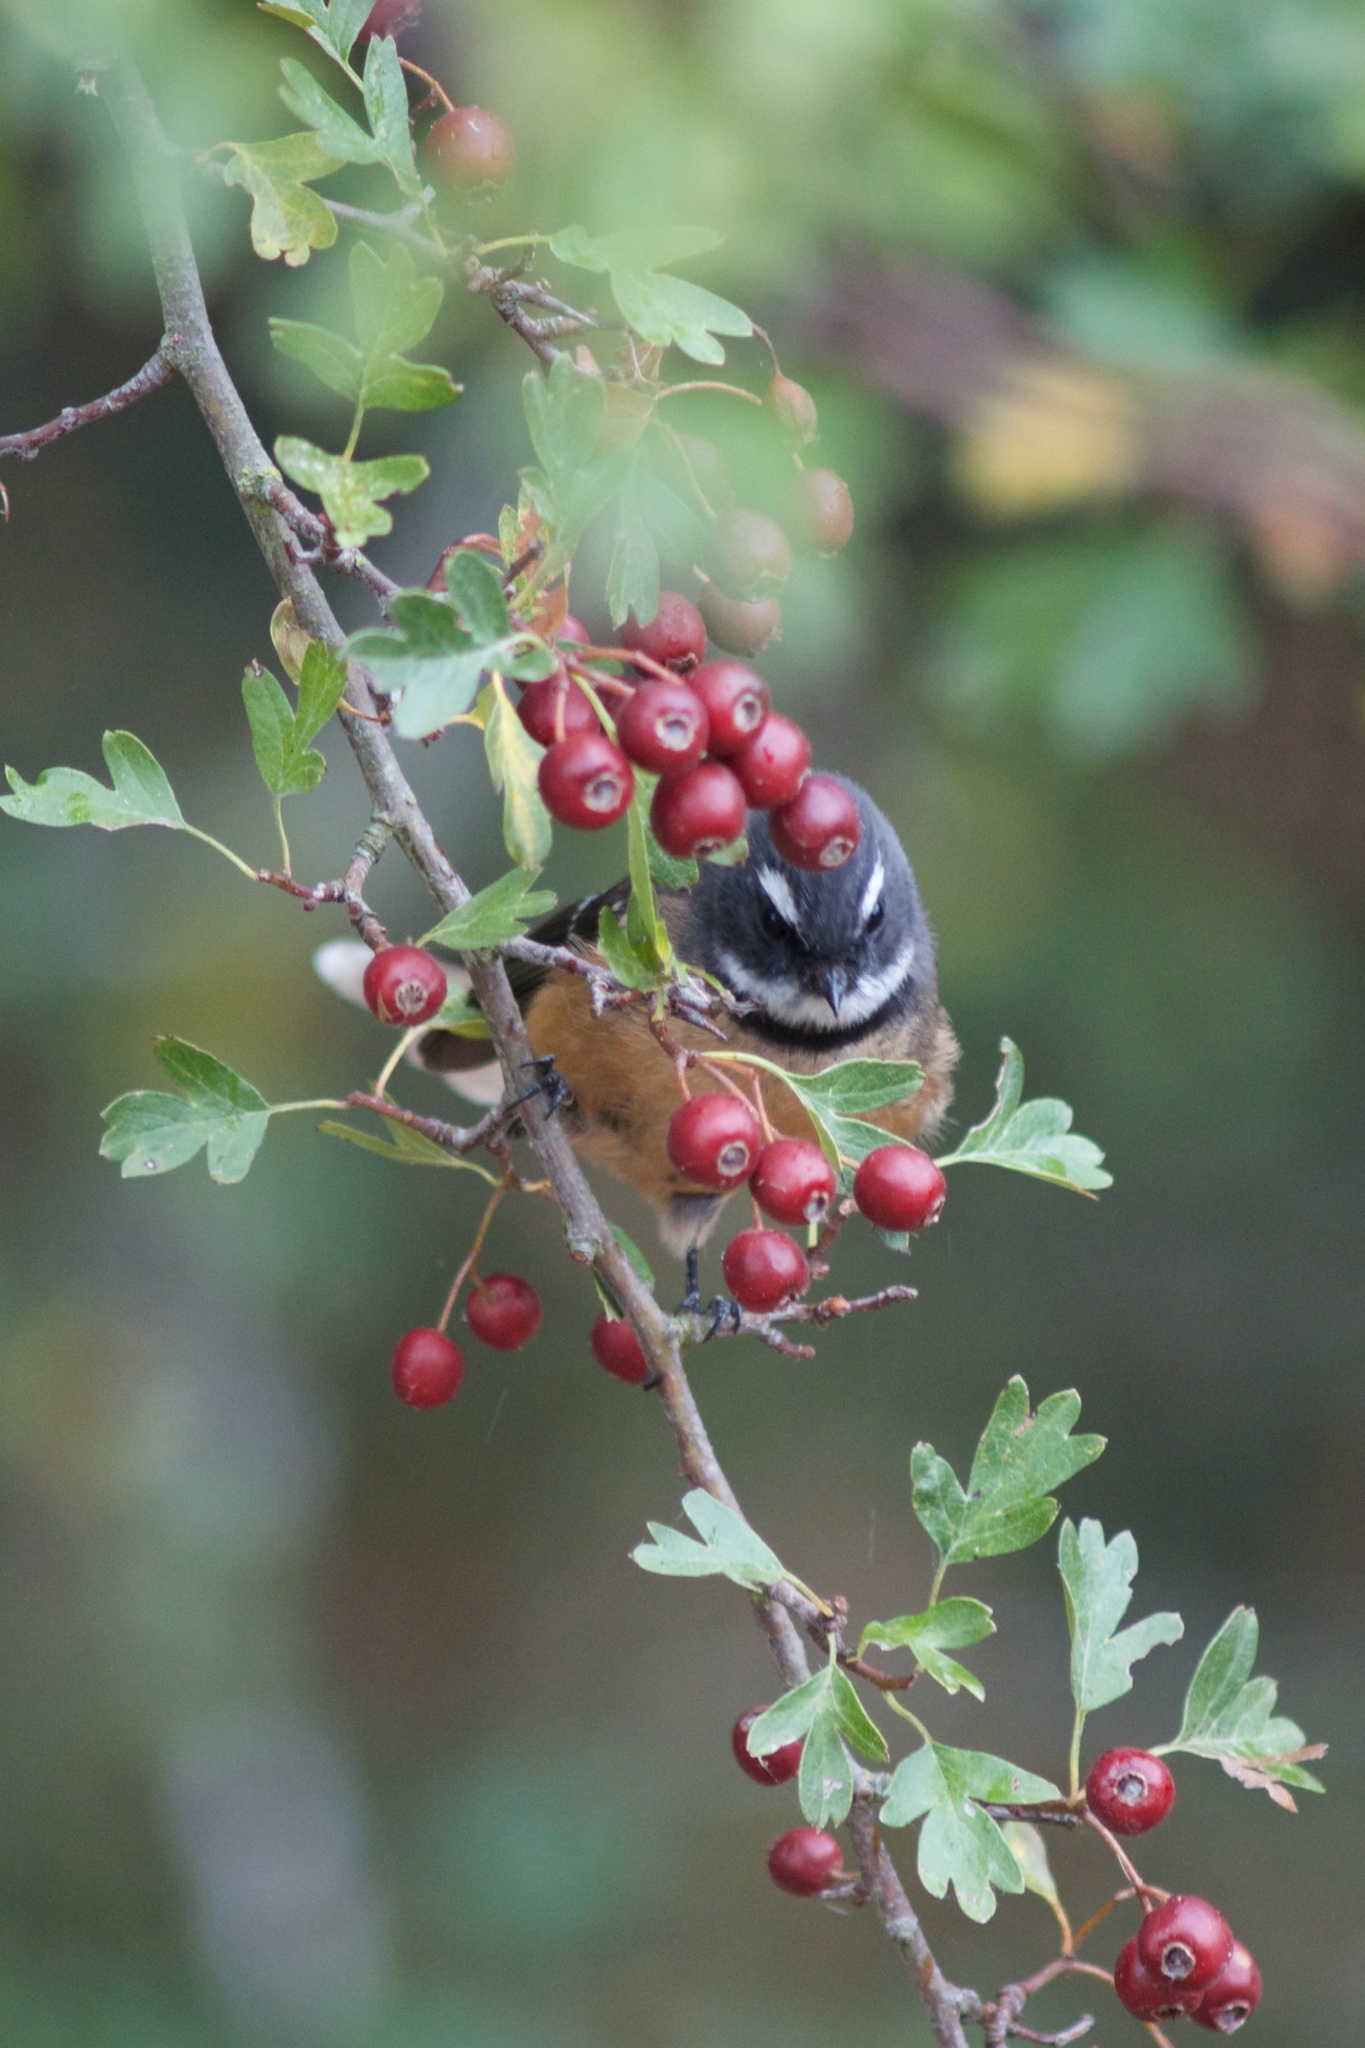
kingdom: Plantae
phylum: Tracheophyta
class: Magnoliopsida
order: Rosales
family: Rosaceae
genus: Crataegus
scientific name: Crataegus monogyna
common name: Hawthorn
